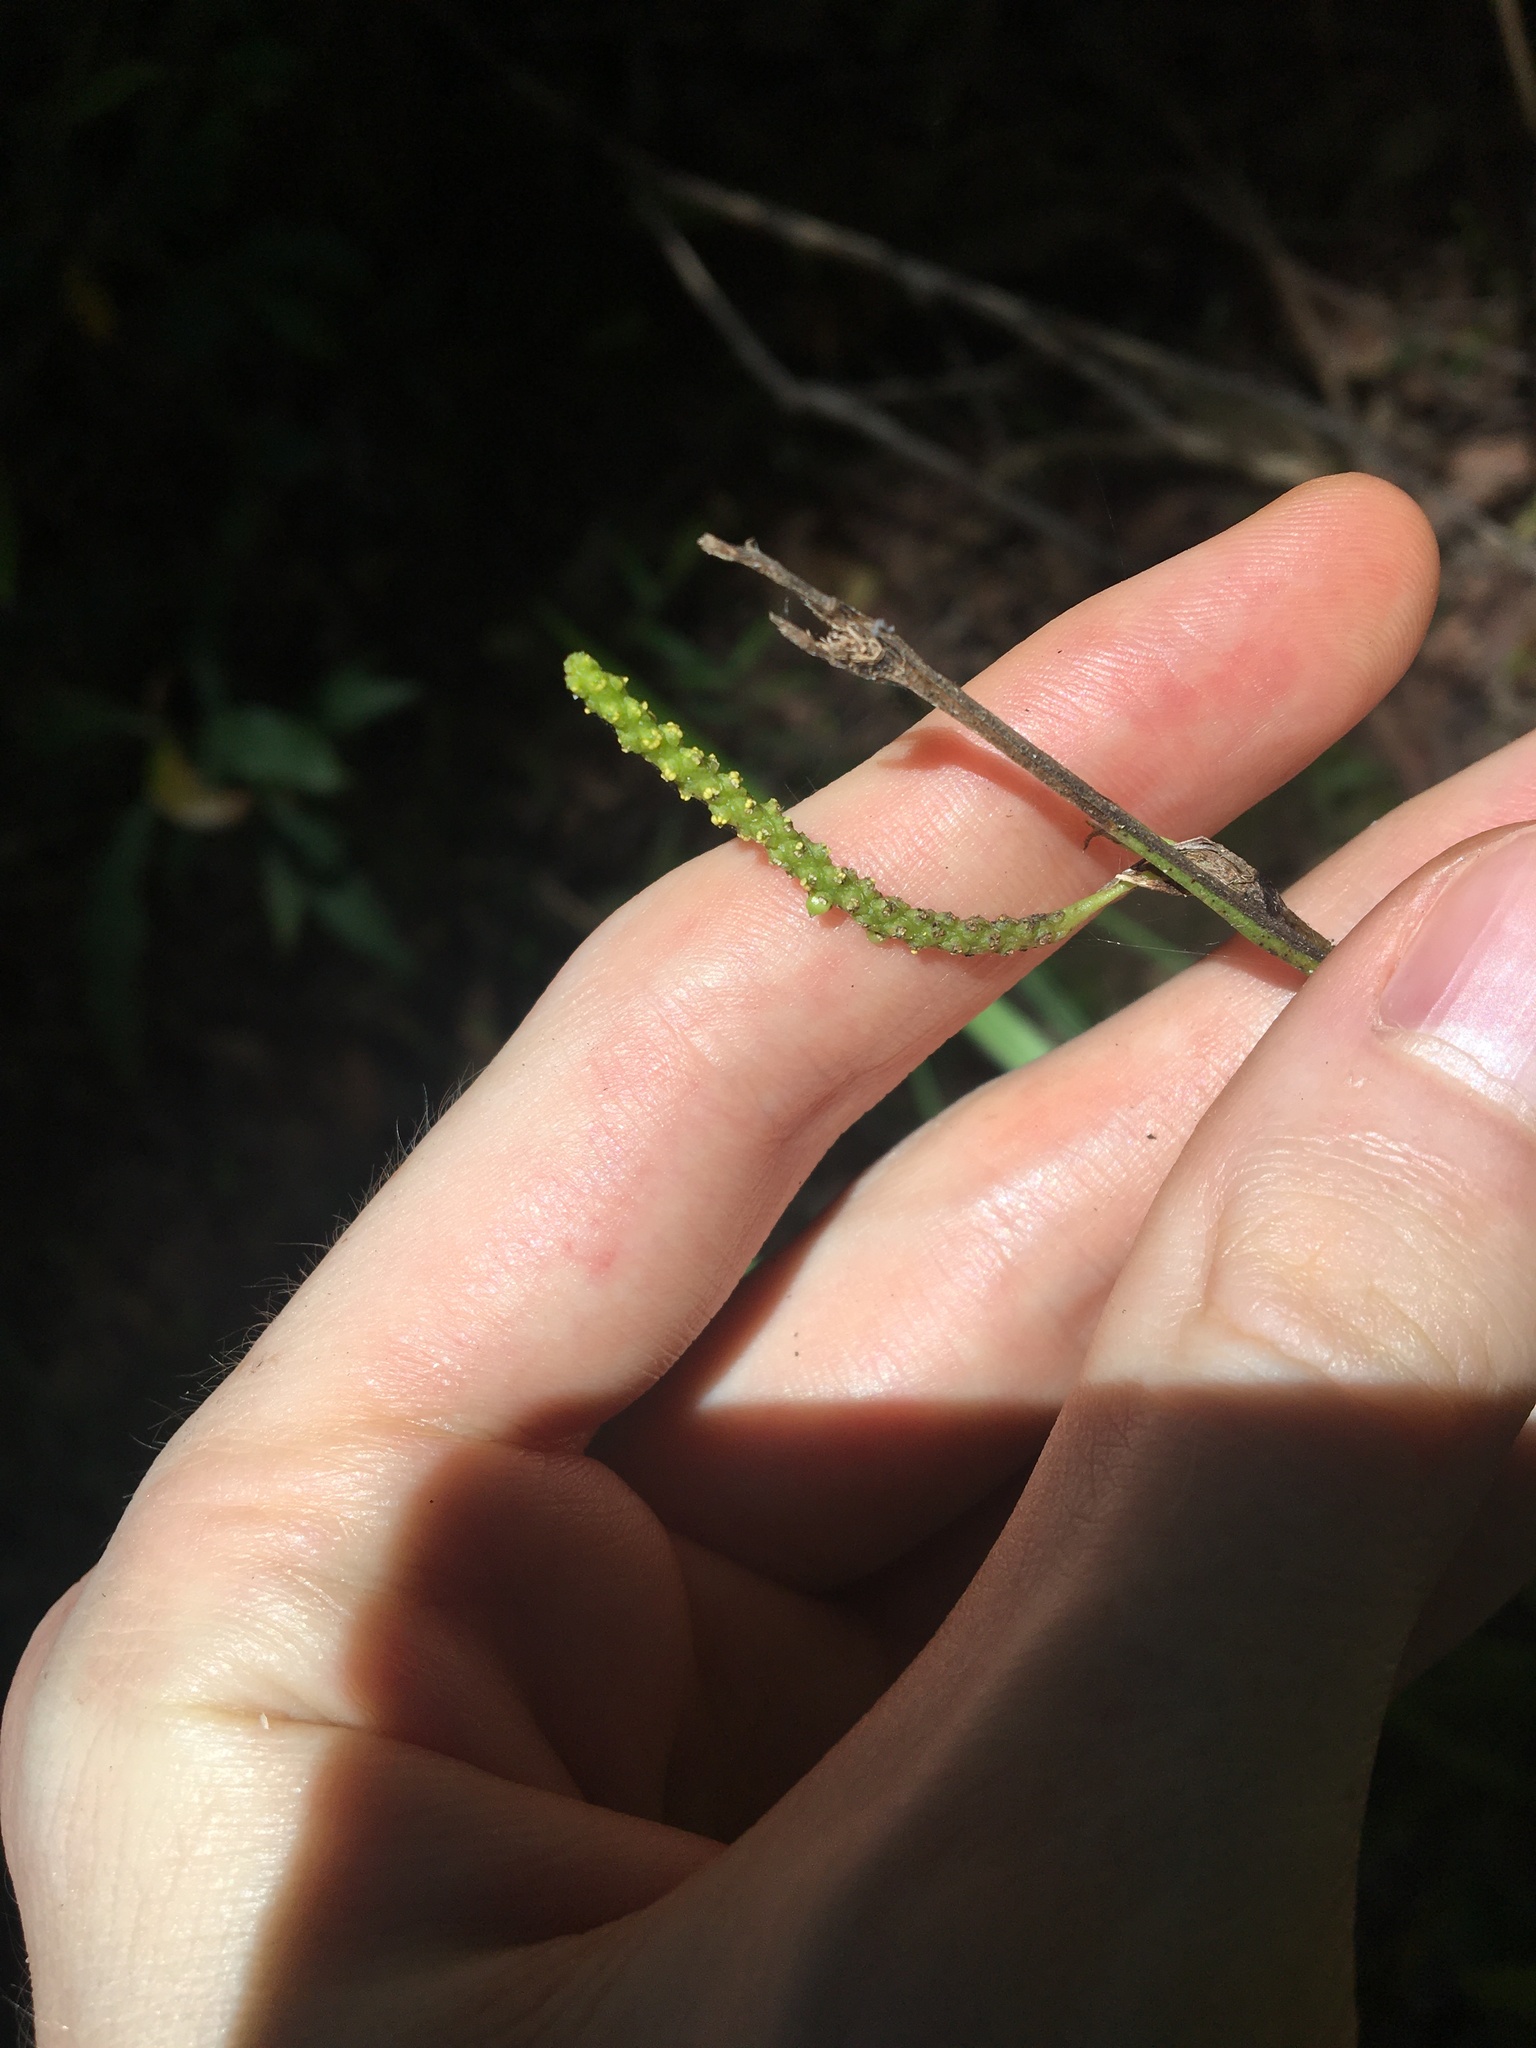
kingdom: Plantae
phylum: Tracheophyta
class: Liliopsida
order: Alismatales
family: Araceae
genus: Gymnostachys
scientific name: Gymnostachys anceps
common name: Settler's-flax
